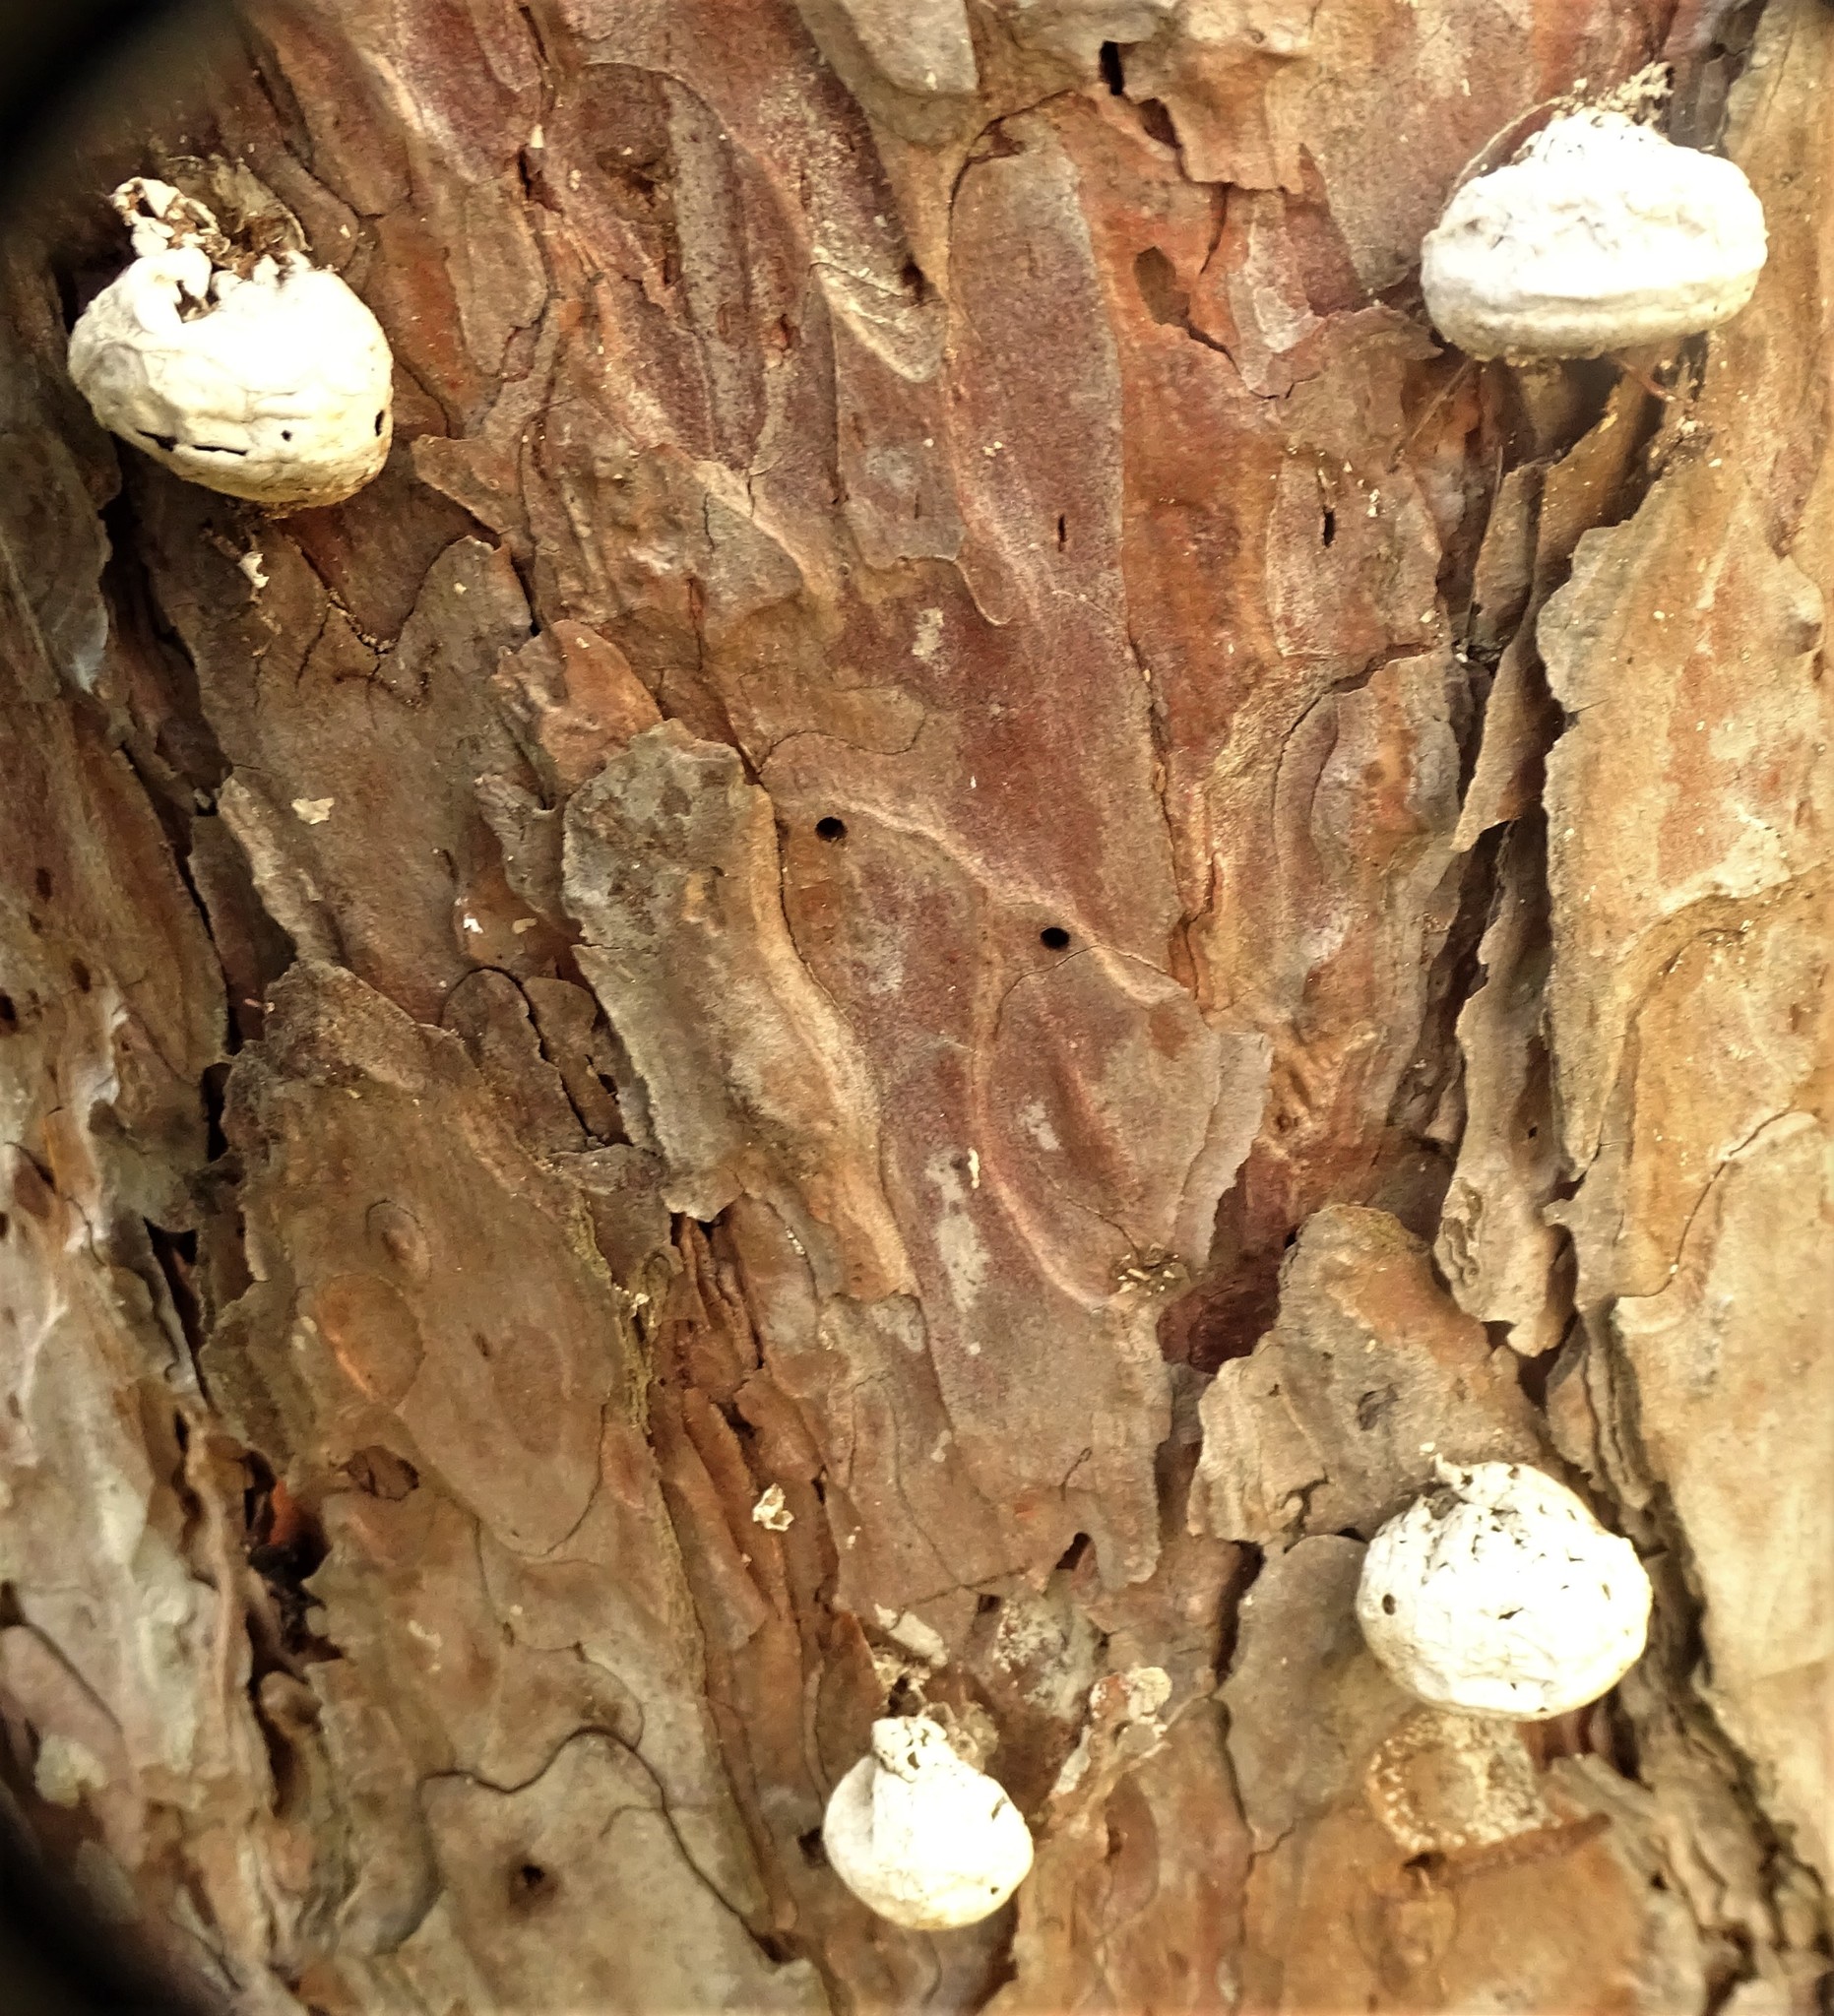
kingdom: Fungi
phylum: Basidiomycota
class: Agaricomycetes
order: Polyporales
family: Polyporaceae
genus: Cryptoporus
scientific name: Cryptoporus volvatus
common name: Veiled polypore
